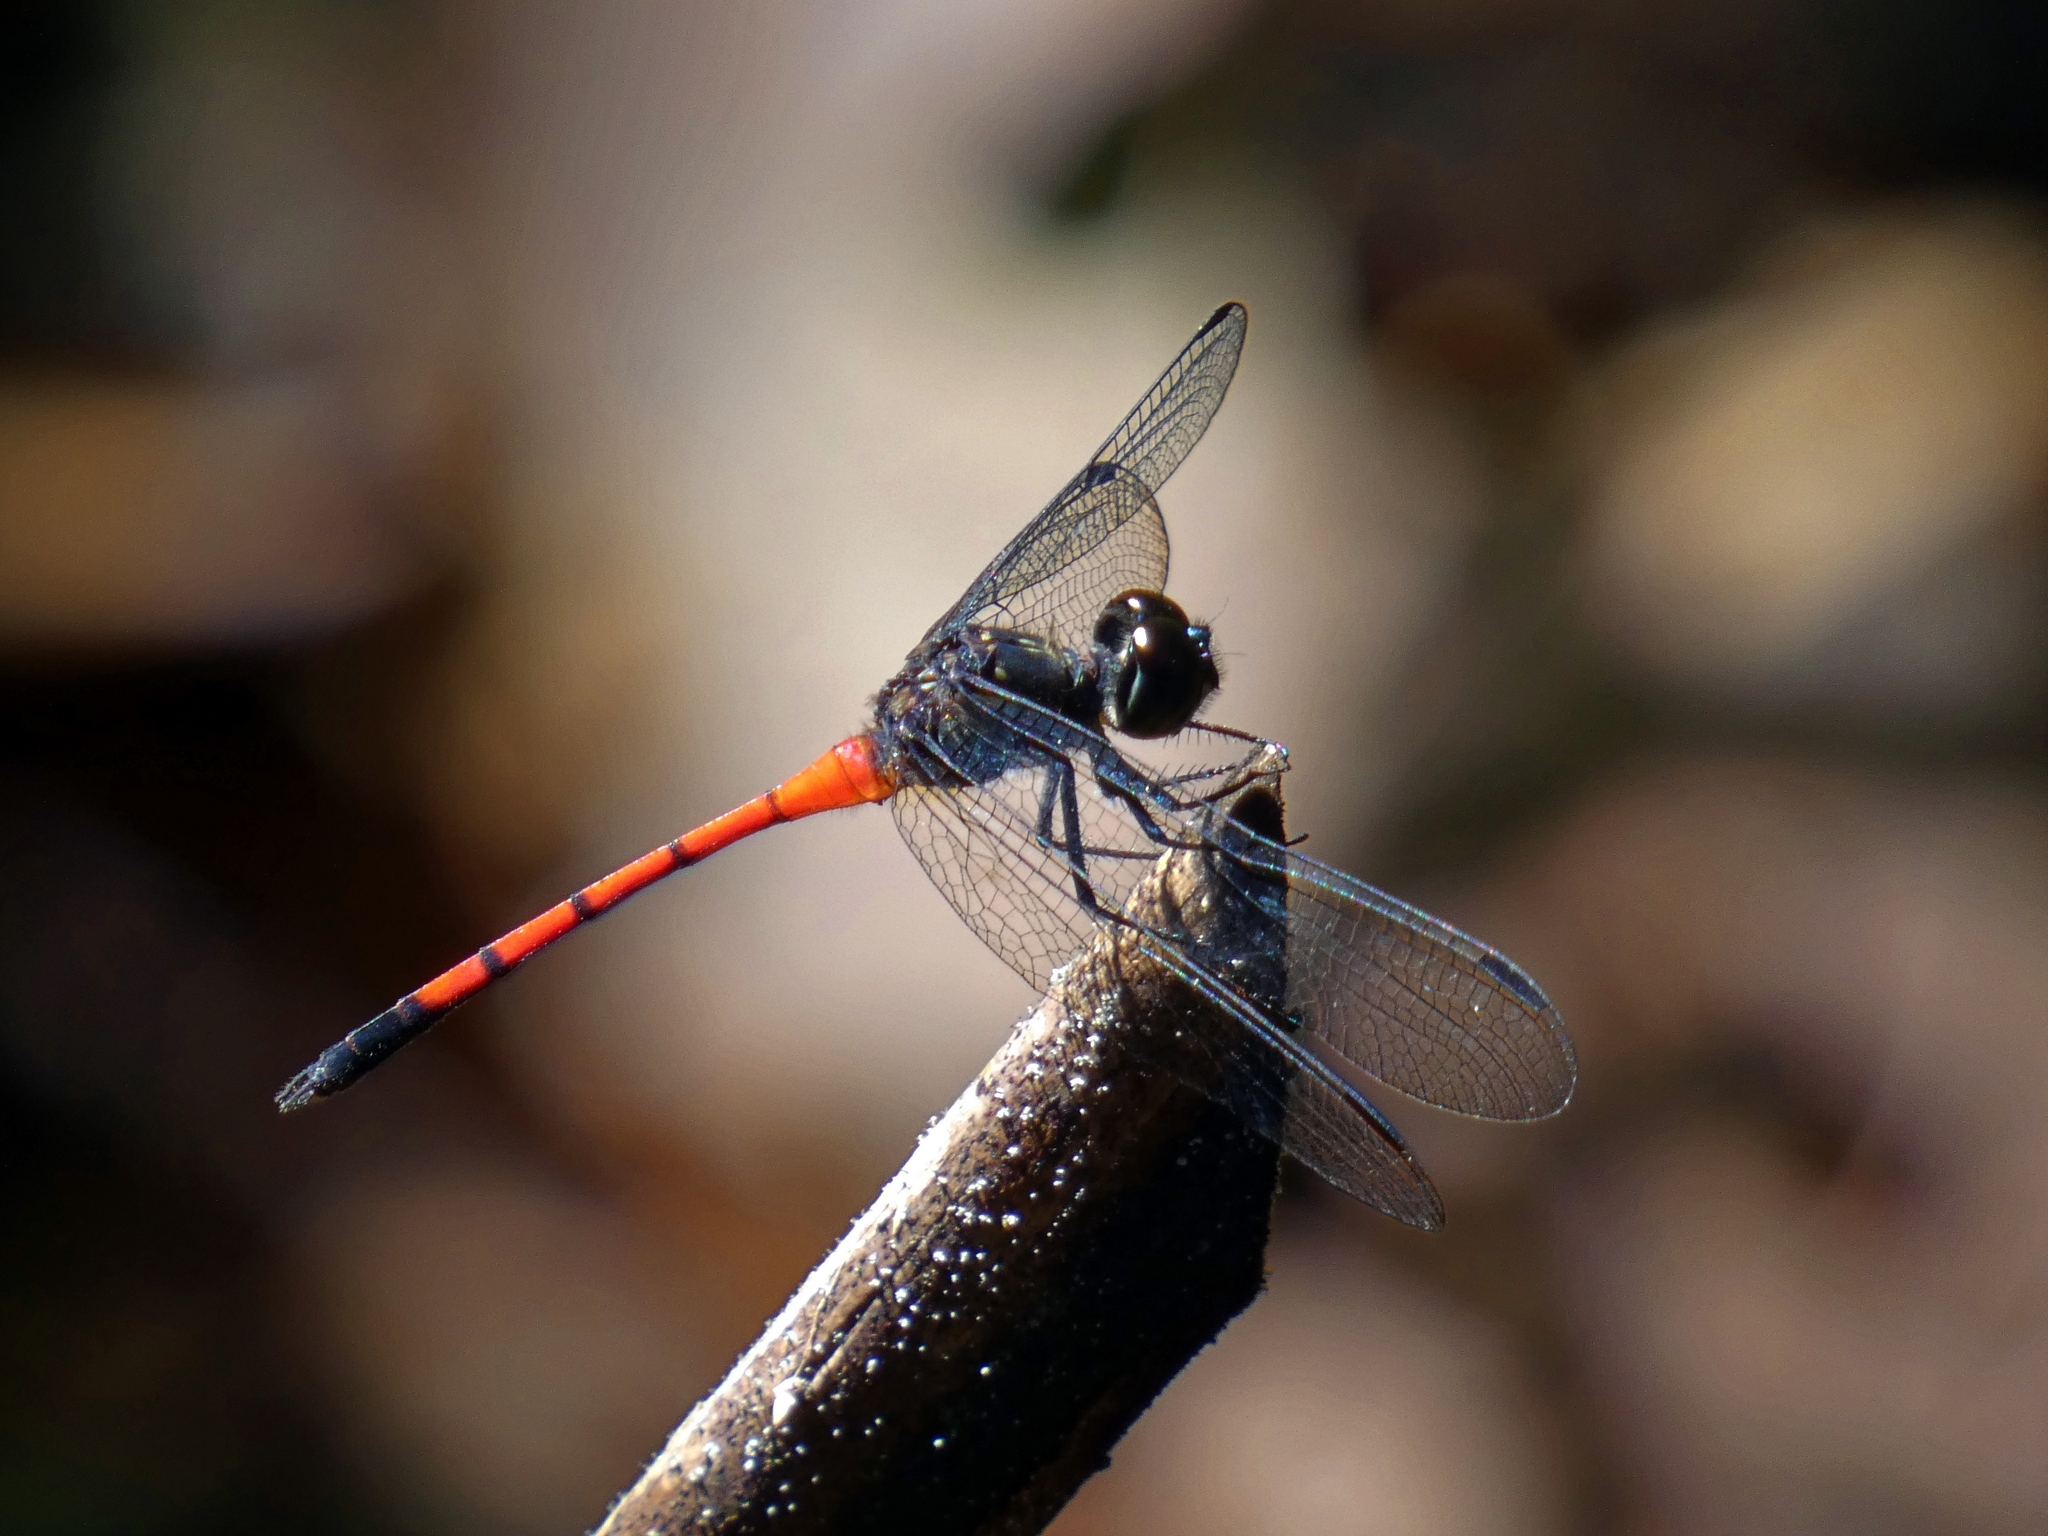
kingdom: Animalia
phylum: Arthropoda
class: Insecta
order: Odonata
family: Libellulidae
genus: Agrionoptera
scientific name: Agrionoptera insignis
